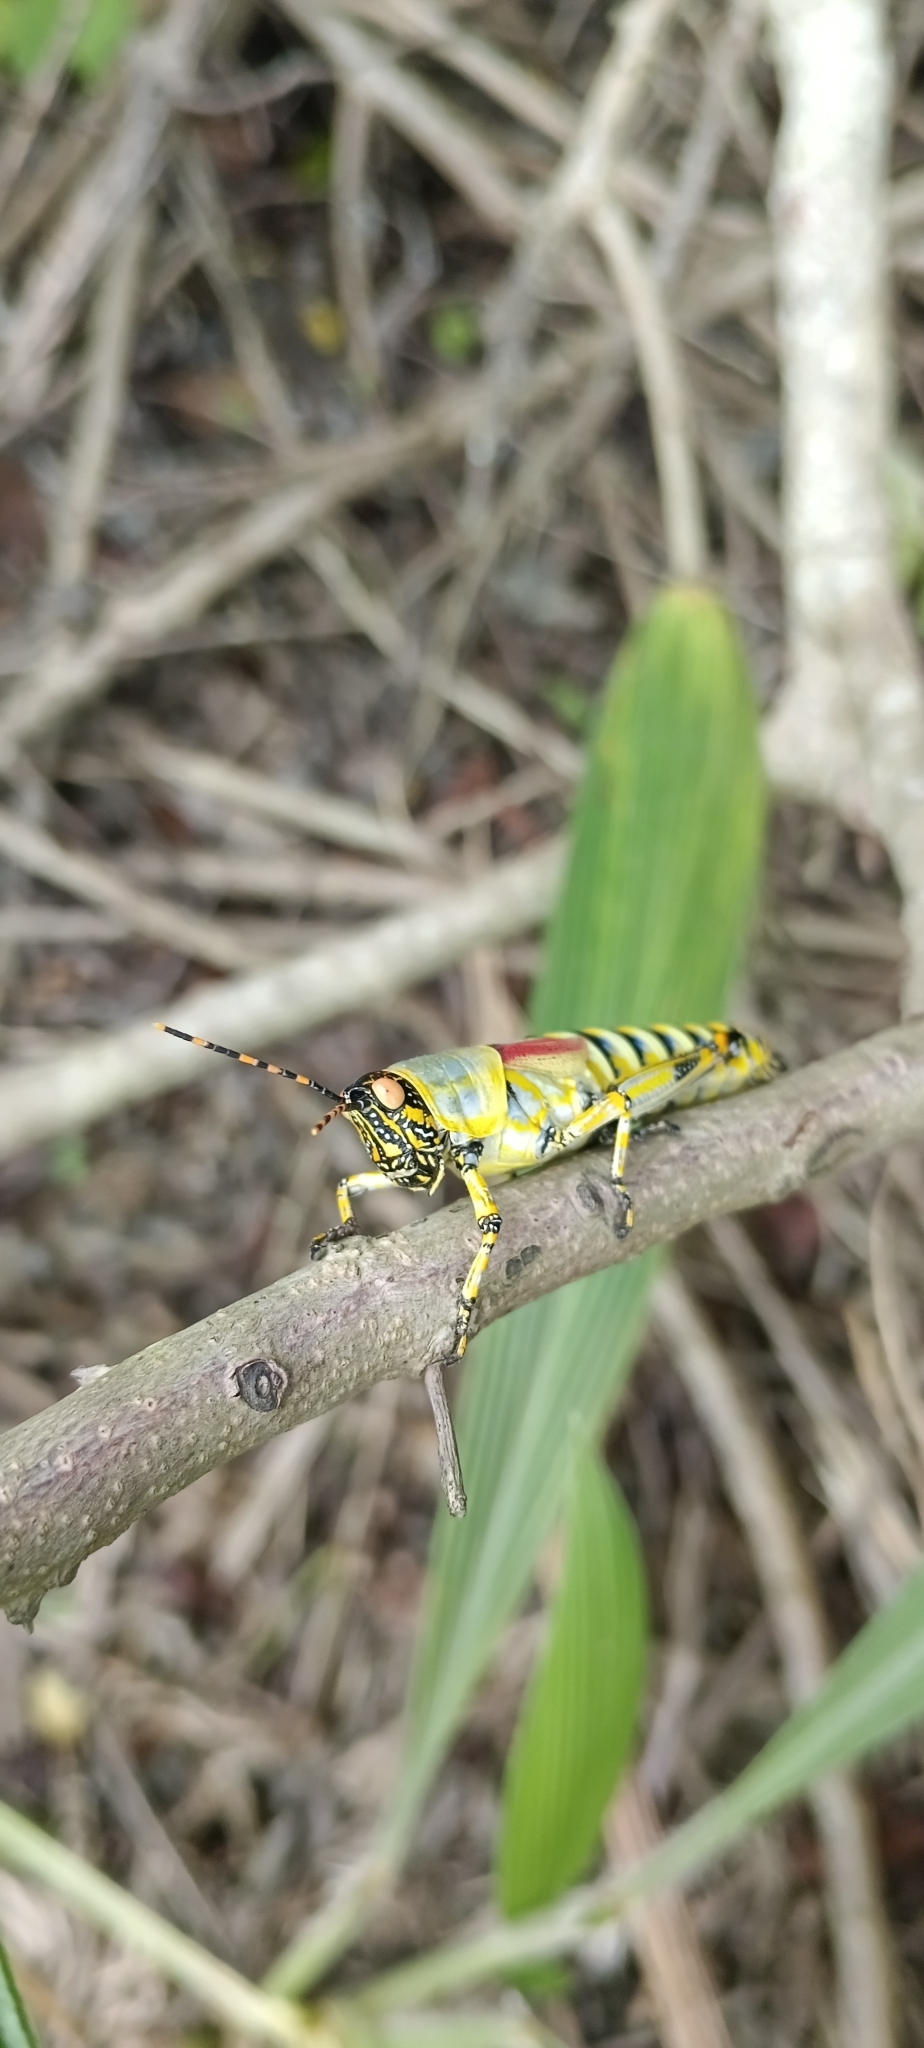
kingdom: Animalia
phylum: Arthropoda
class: Insecta
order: Orthoptera
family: Pyrgomorphidae
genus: Zonocerus
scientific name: Zonocerus elegans
